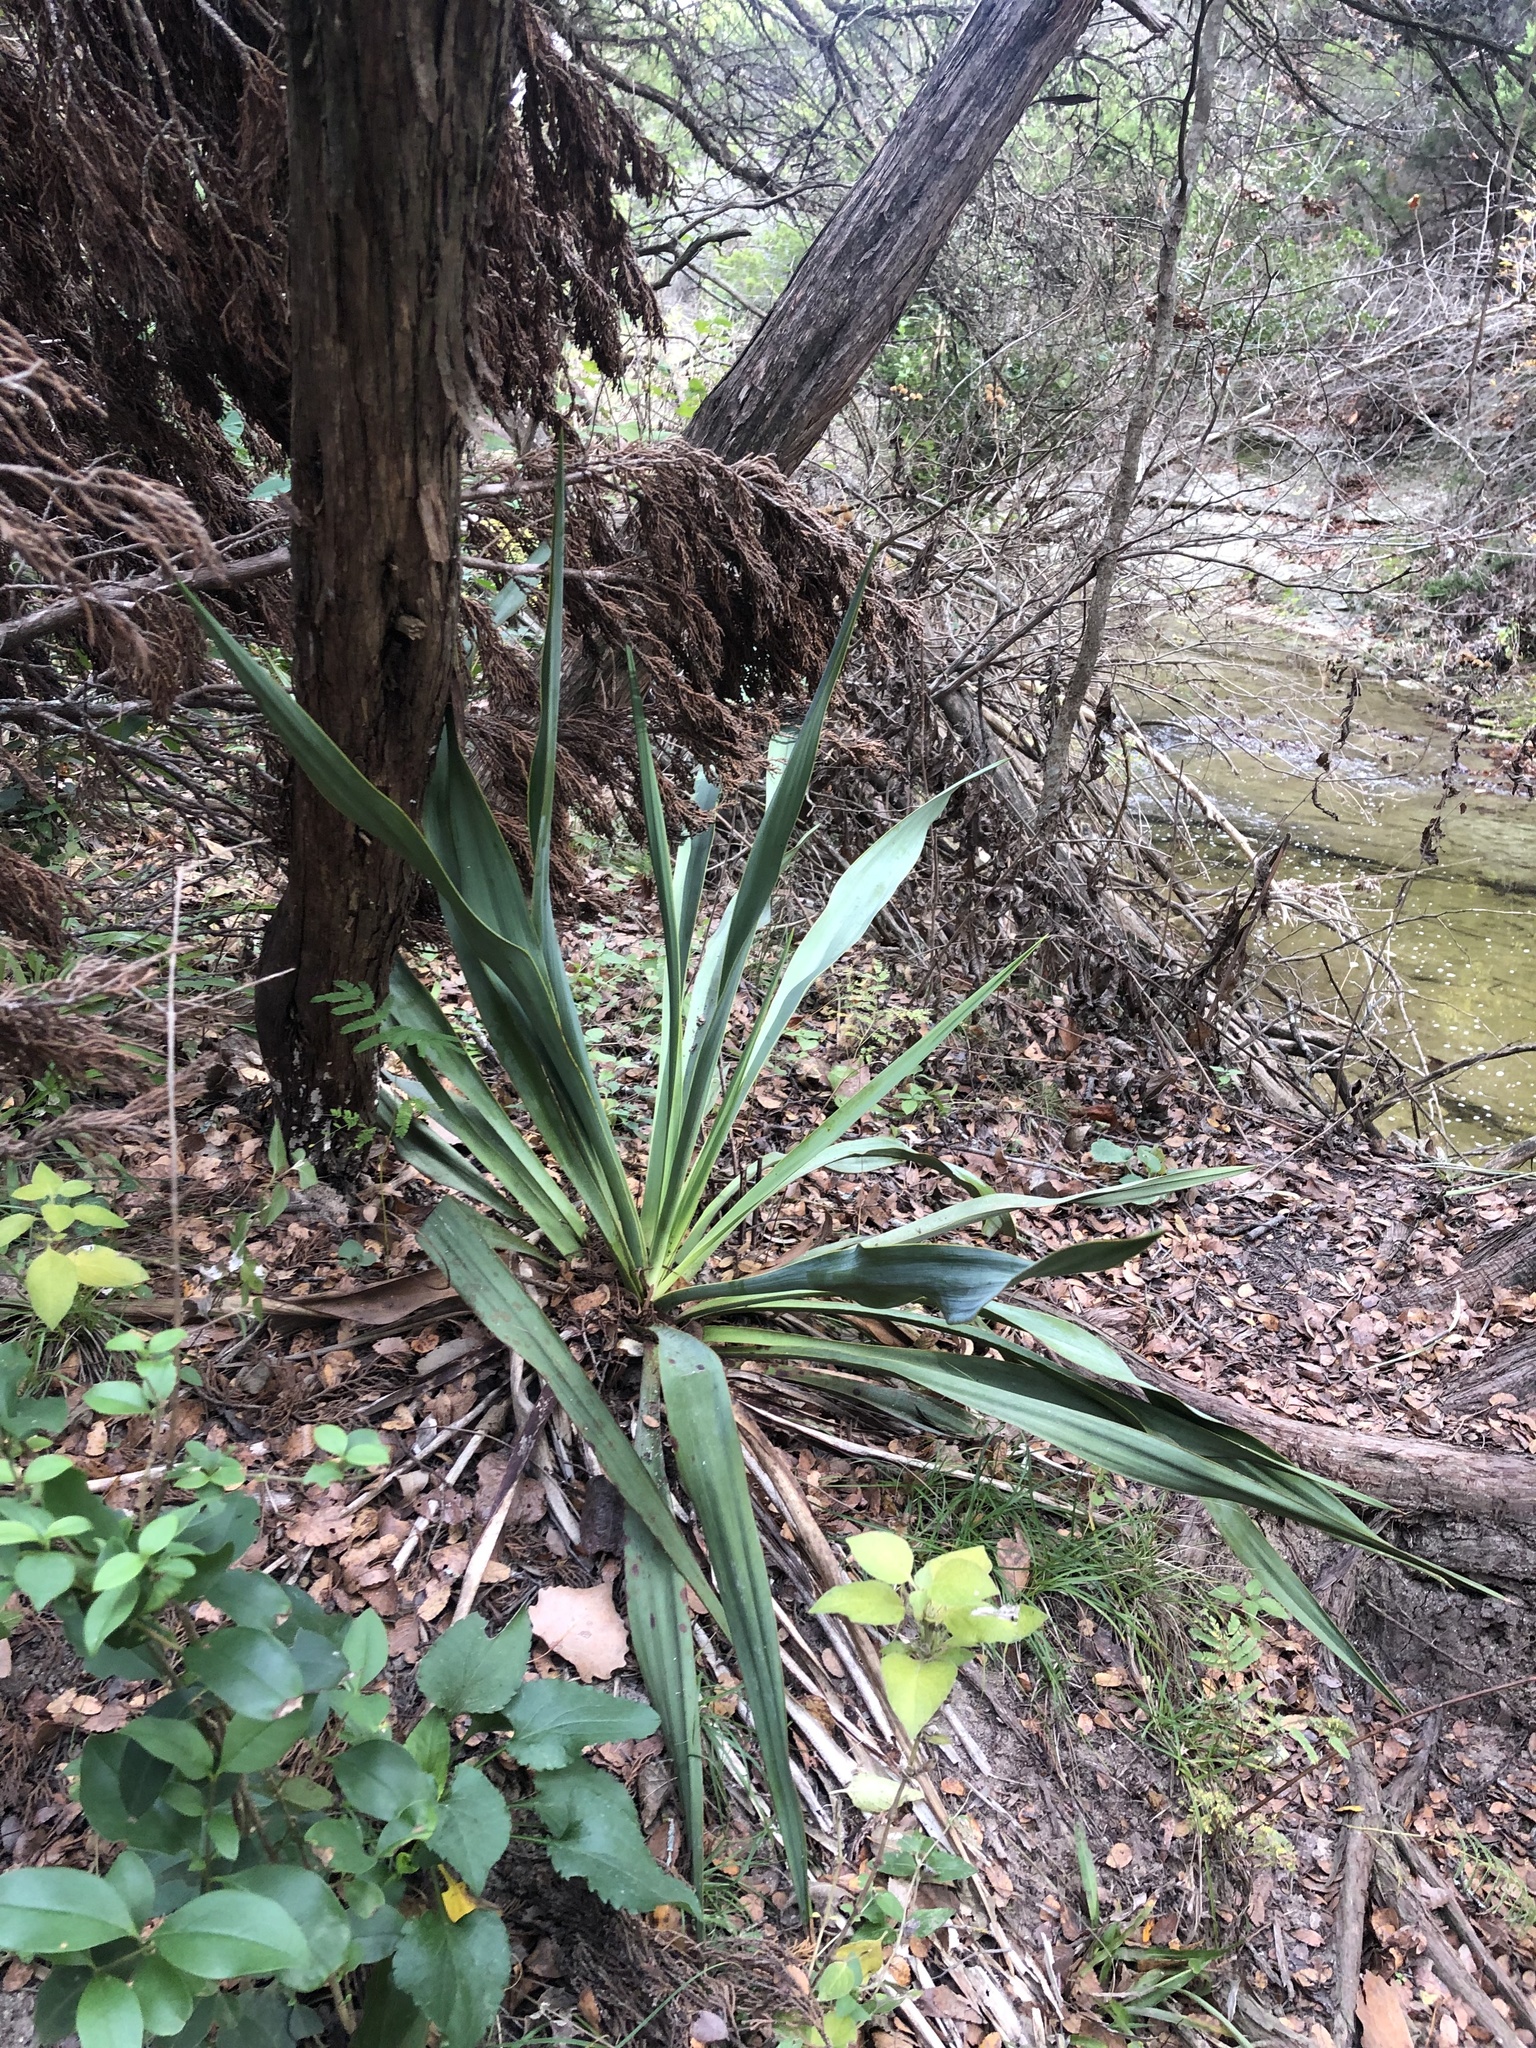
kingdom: Plantae
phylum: Tracheophyta
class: Liliopsida
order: Asparagales
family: Asparagaceae
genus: Yucca
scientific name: Yucca rupicola
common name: Twisted-leaf spanish-dagger
